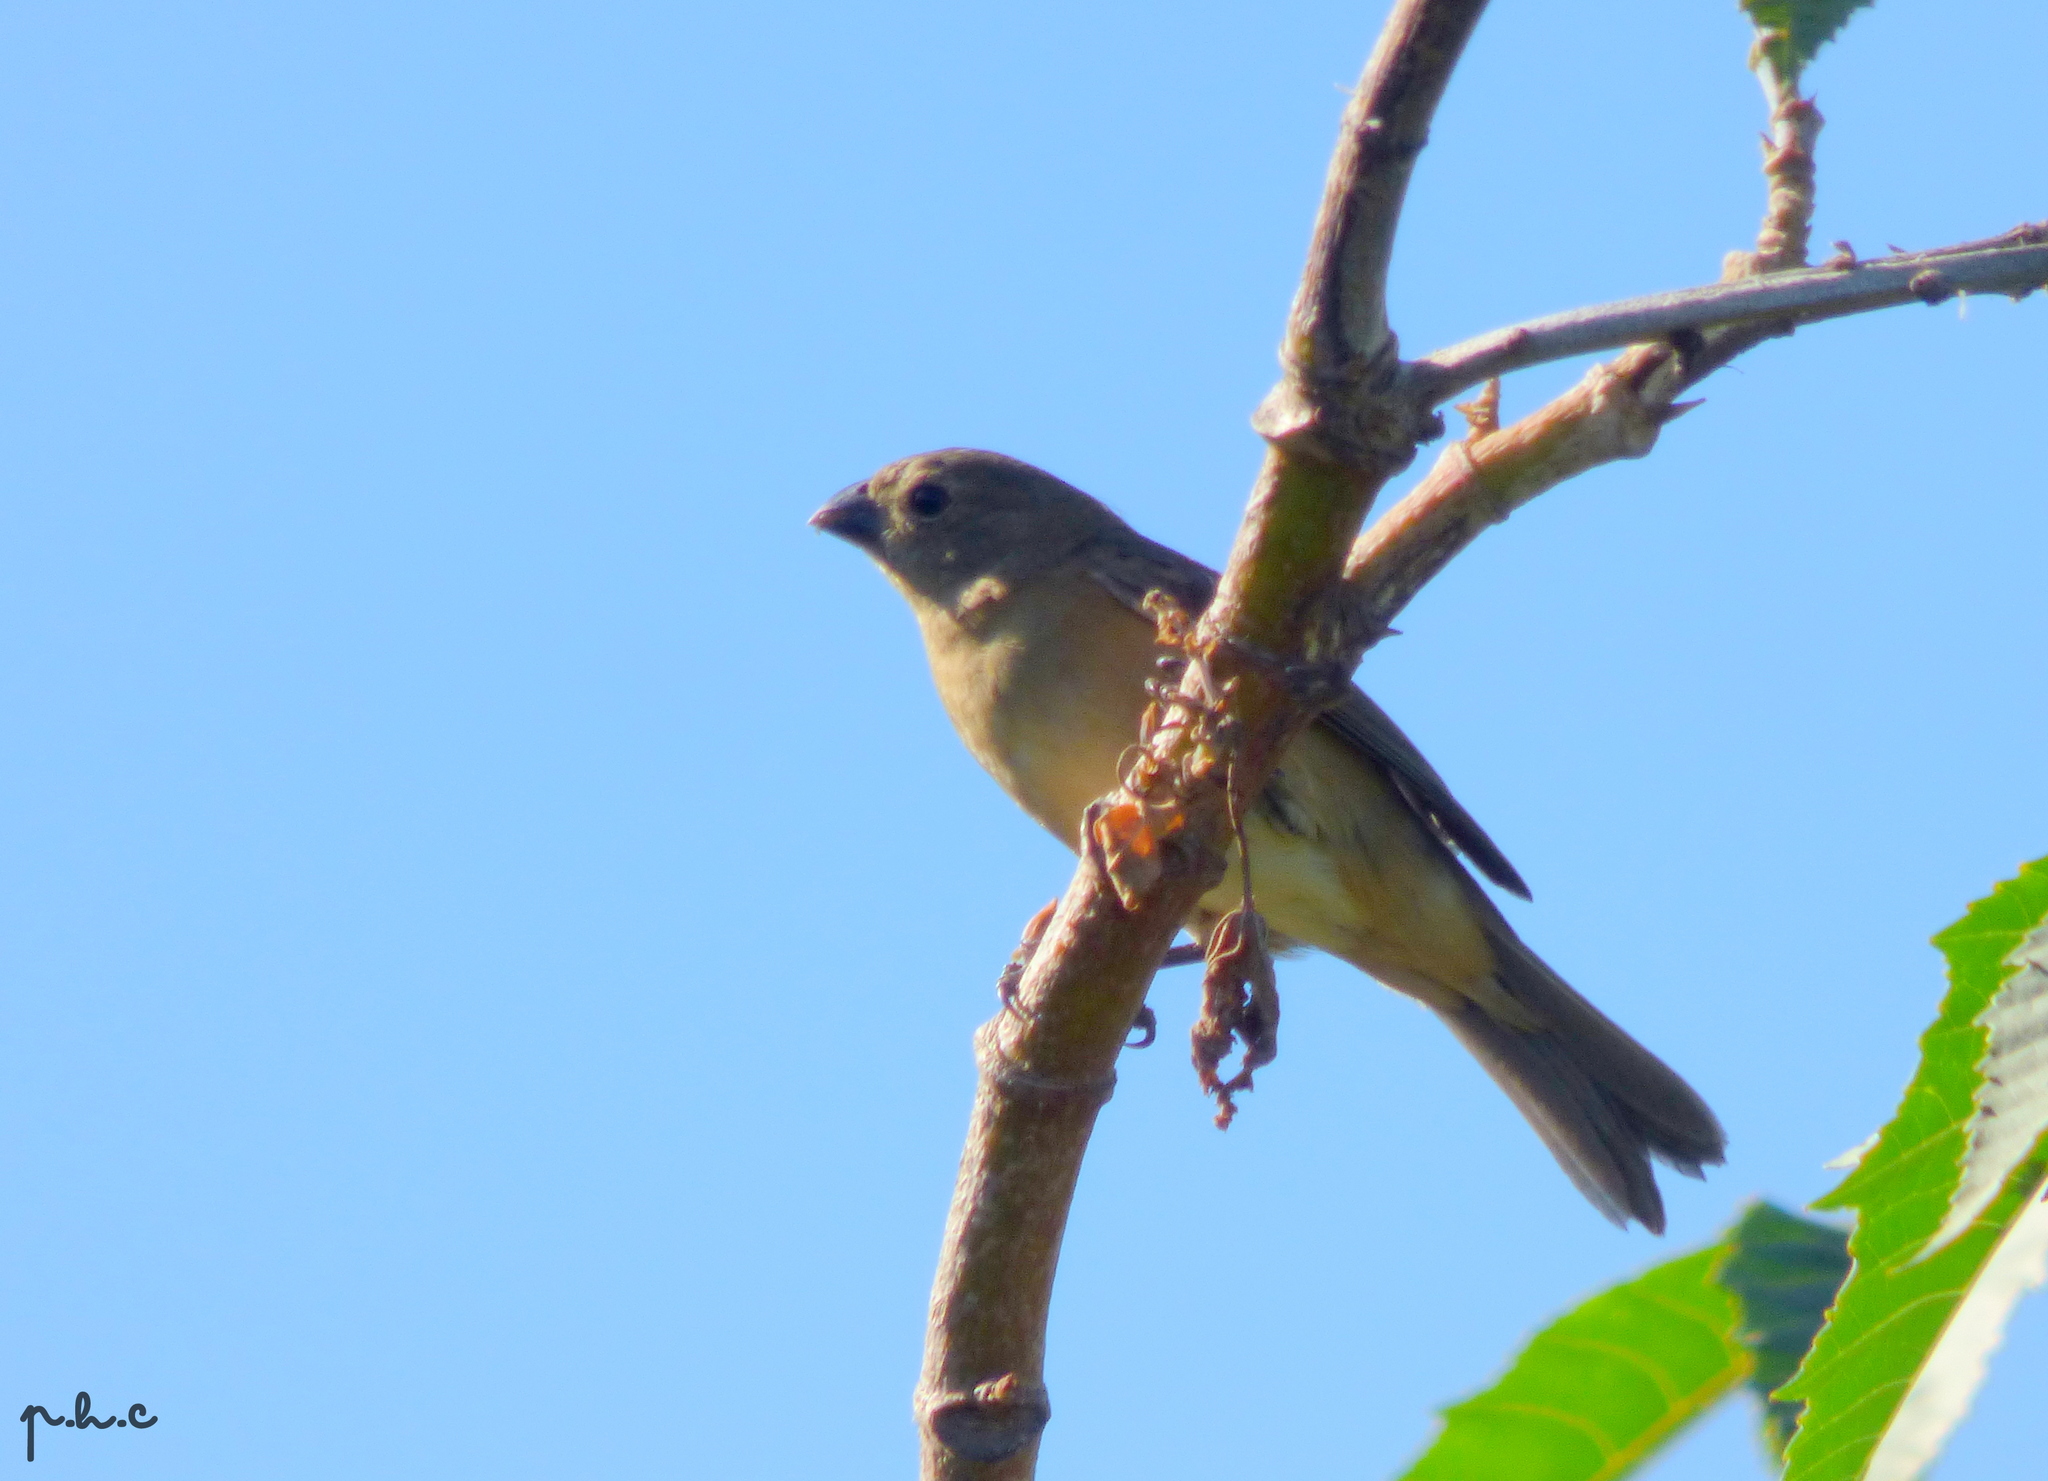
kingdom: Animalia
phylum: Chordata
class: Aves
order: Passeriformes
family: Thraupidae
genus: Sporophila
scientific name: Sporophila collaris
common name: Rusty-collared seedeater
